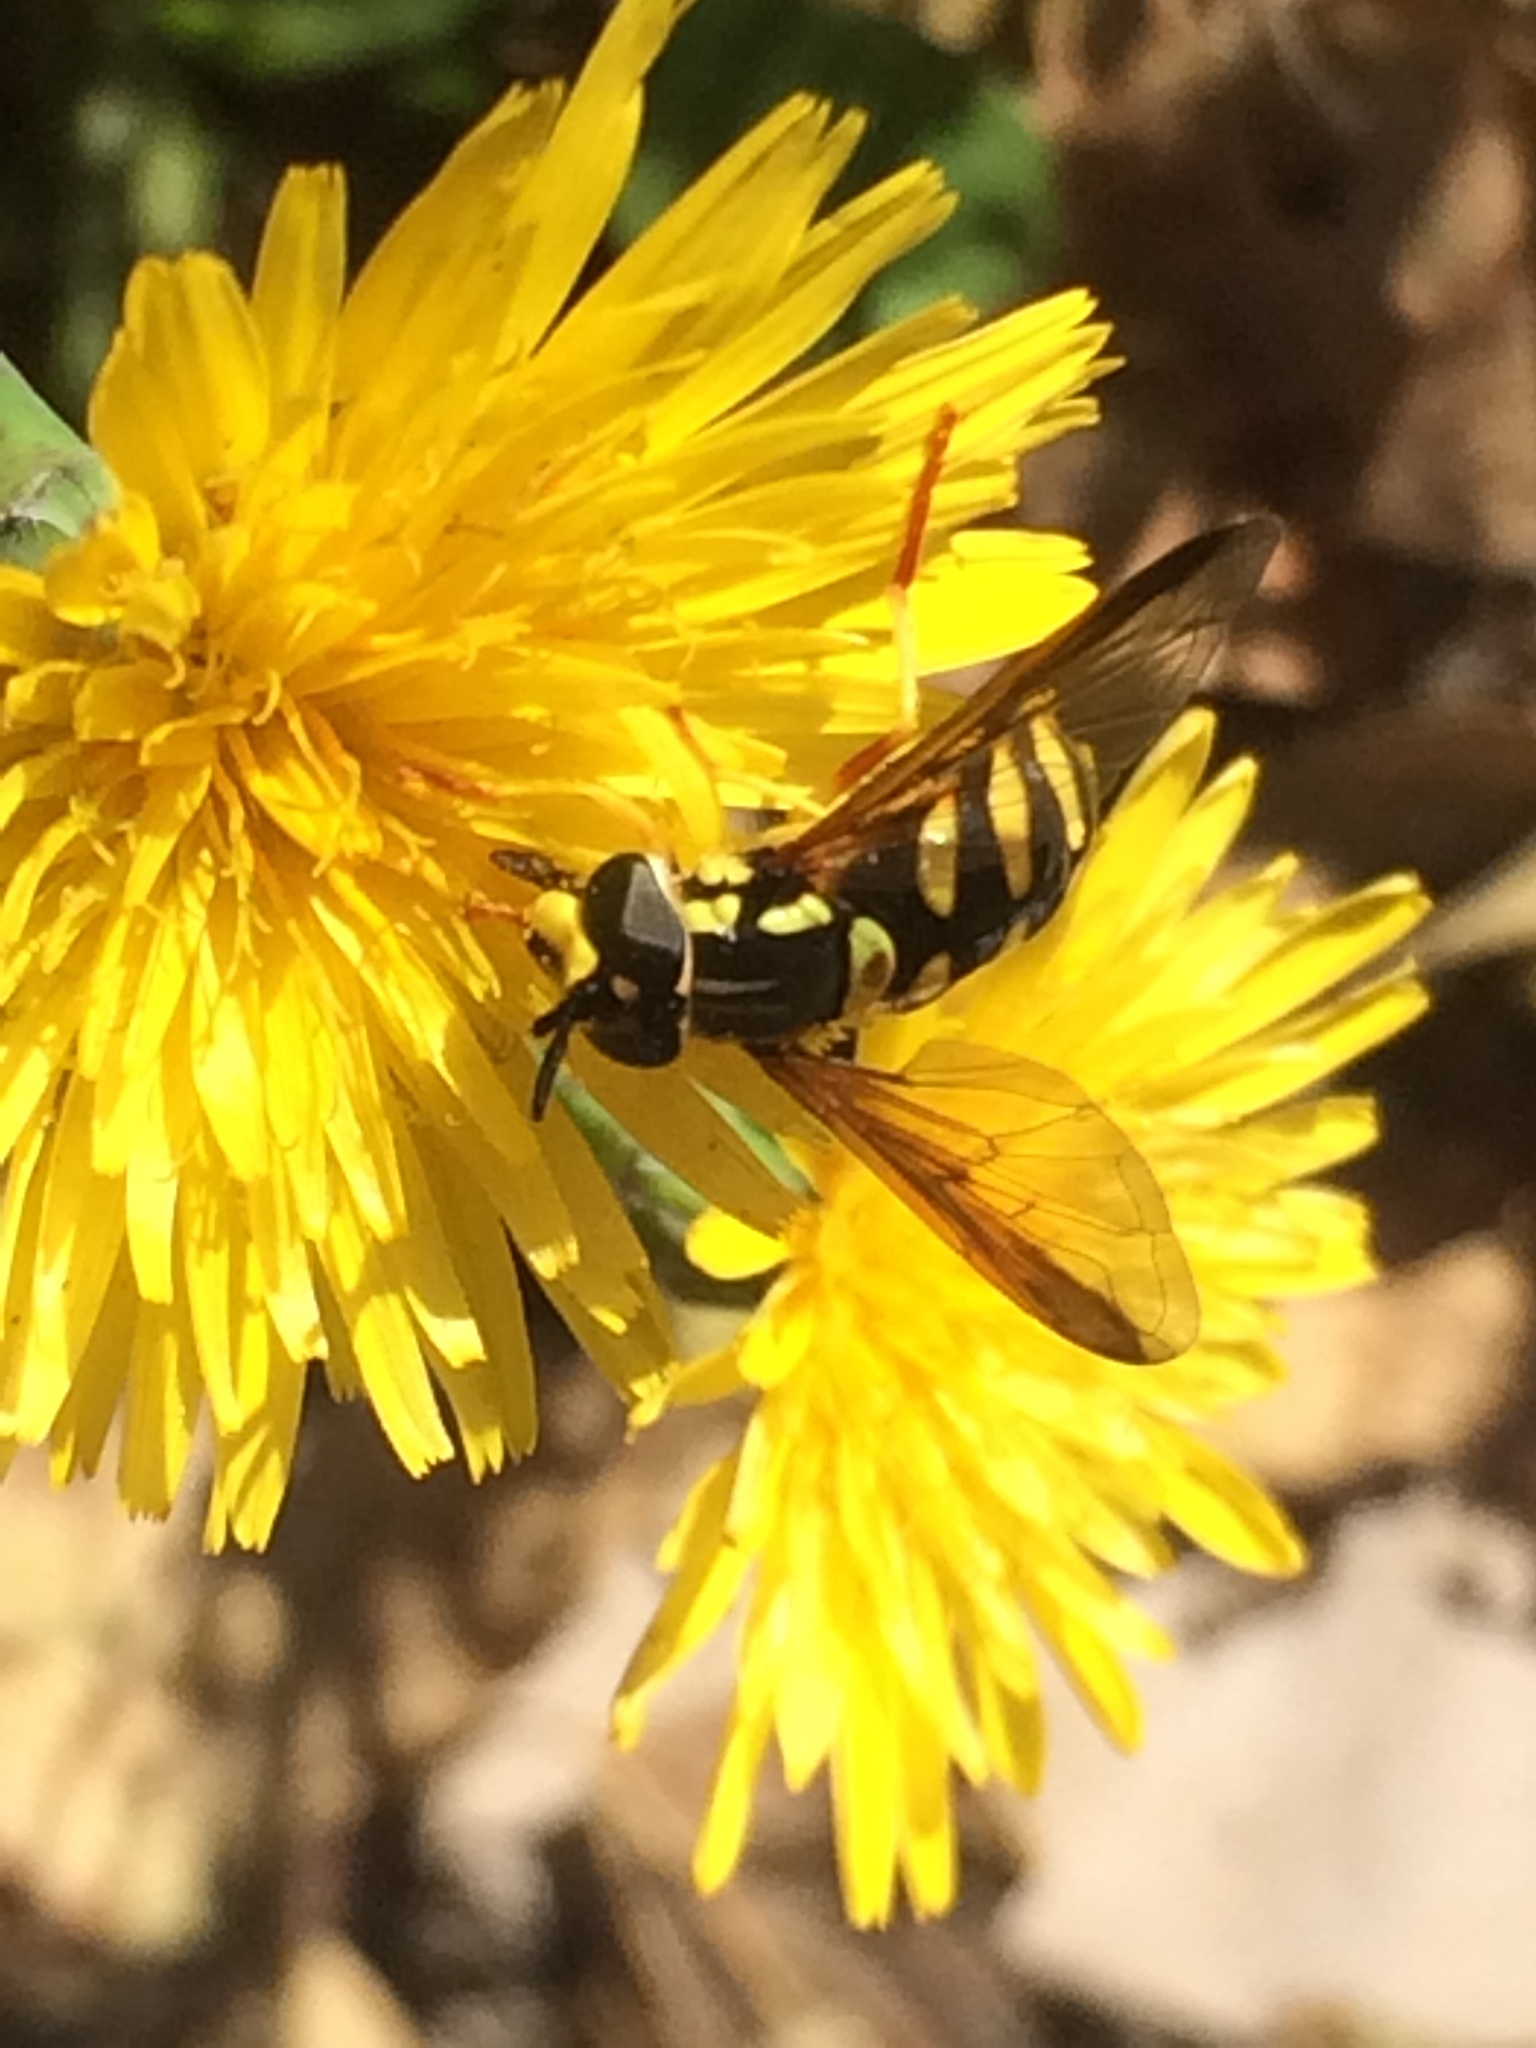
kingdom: Animalia
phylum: Arthropoda
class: Insecta
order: Diptera
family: Syrphidae
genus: Episyrphus
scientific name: Episyrphus balteatus
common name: Marmalade hoverfly
